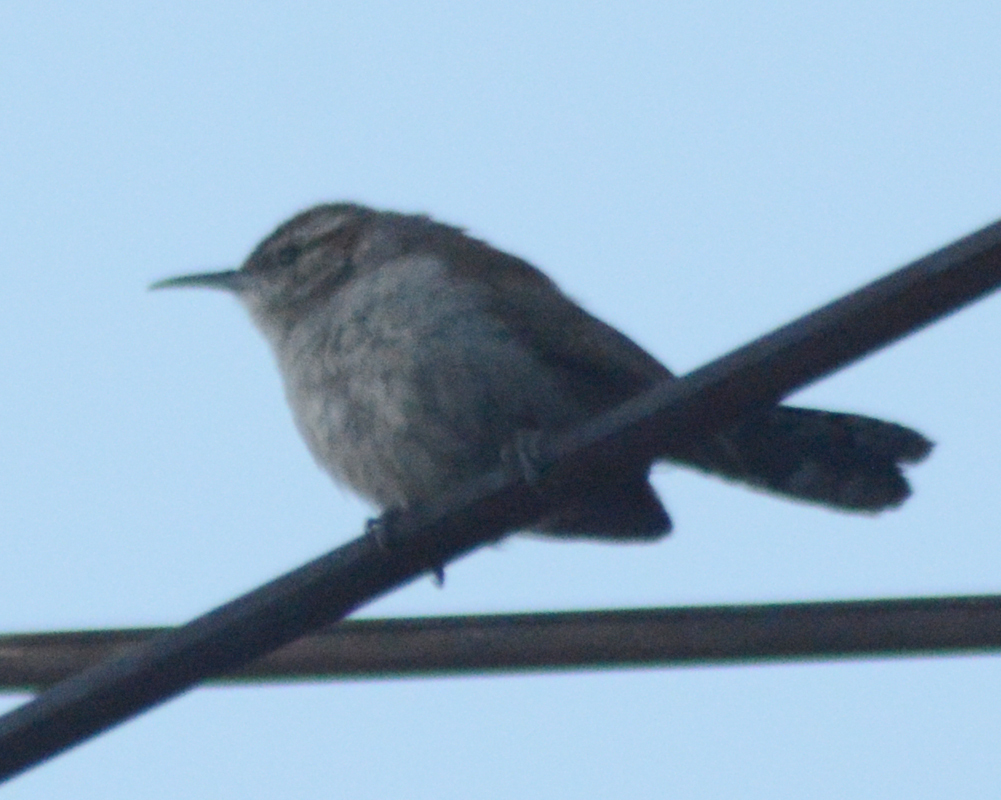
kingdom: Animalia
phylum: Chordata
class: Aves
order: Passeriformes
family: Troglodytidae
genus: Thryomanes
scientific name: Thryomanes bewickii
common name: Bewick's wren
